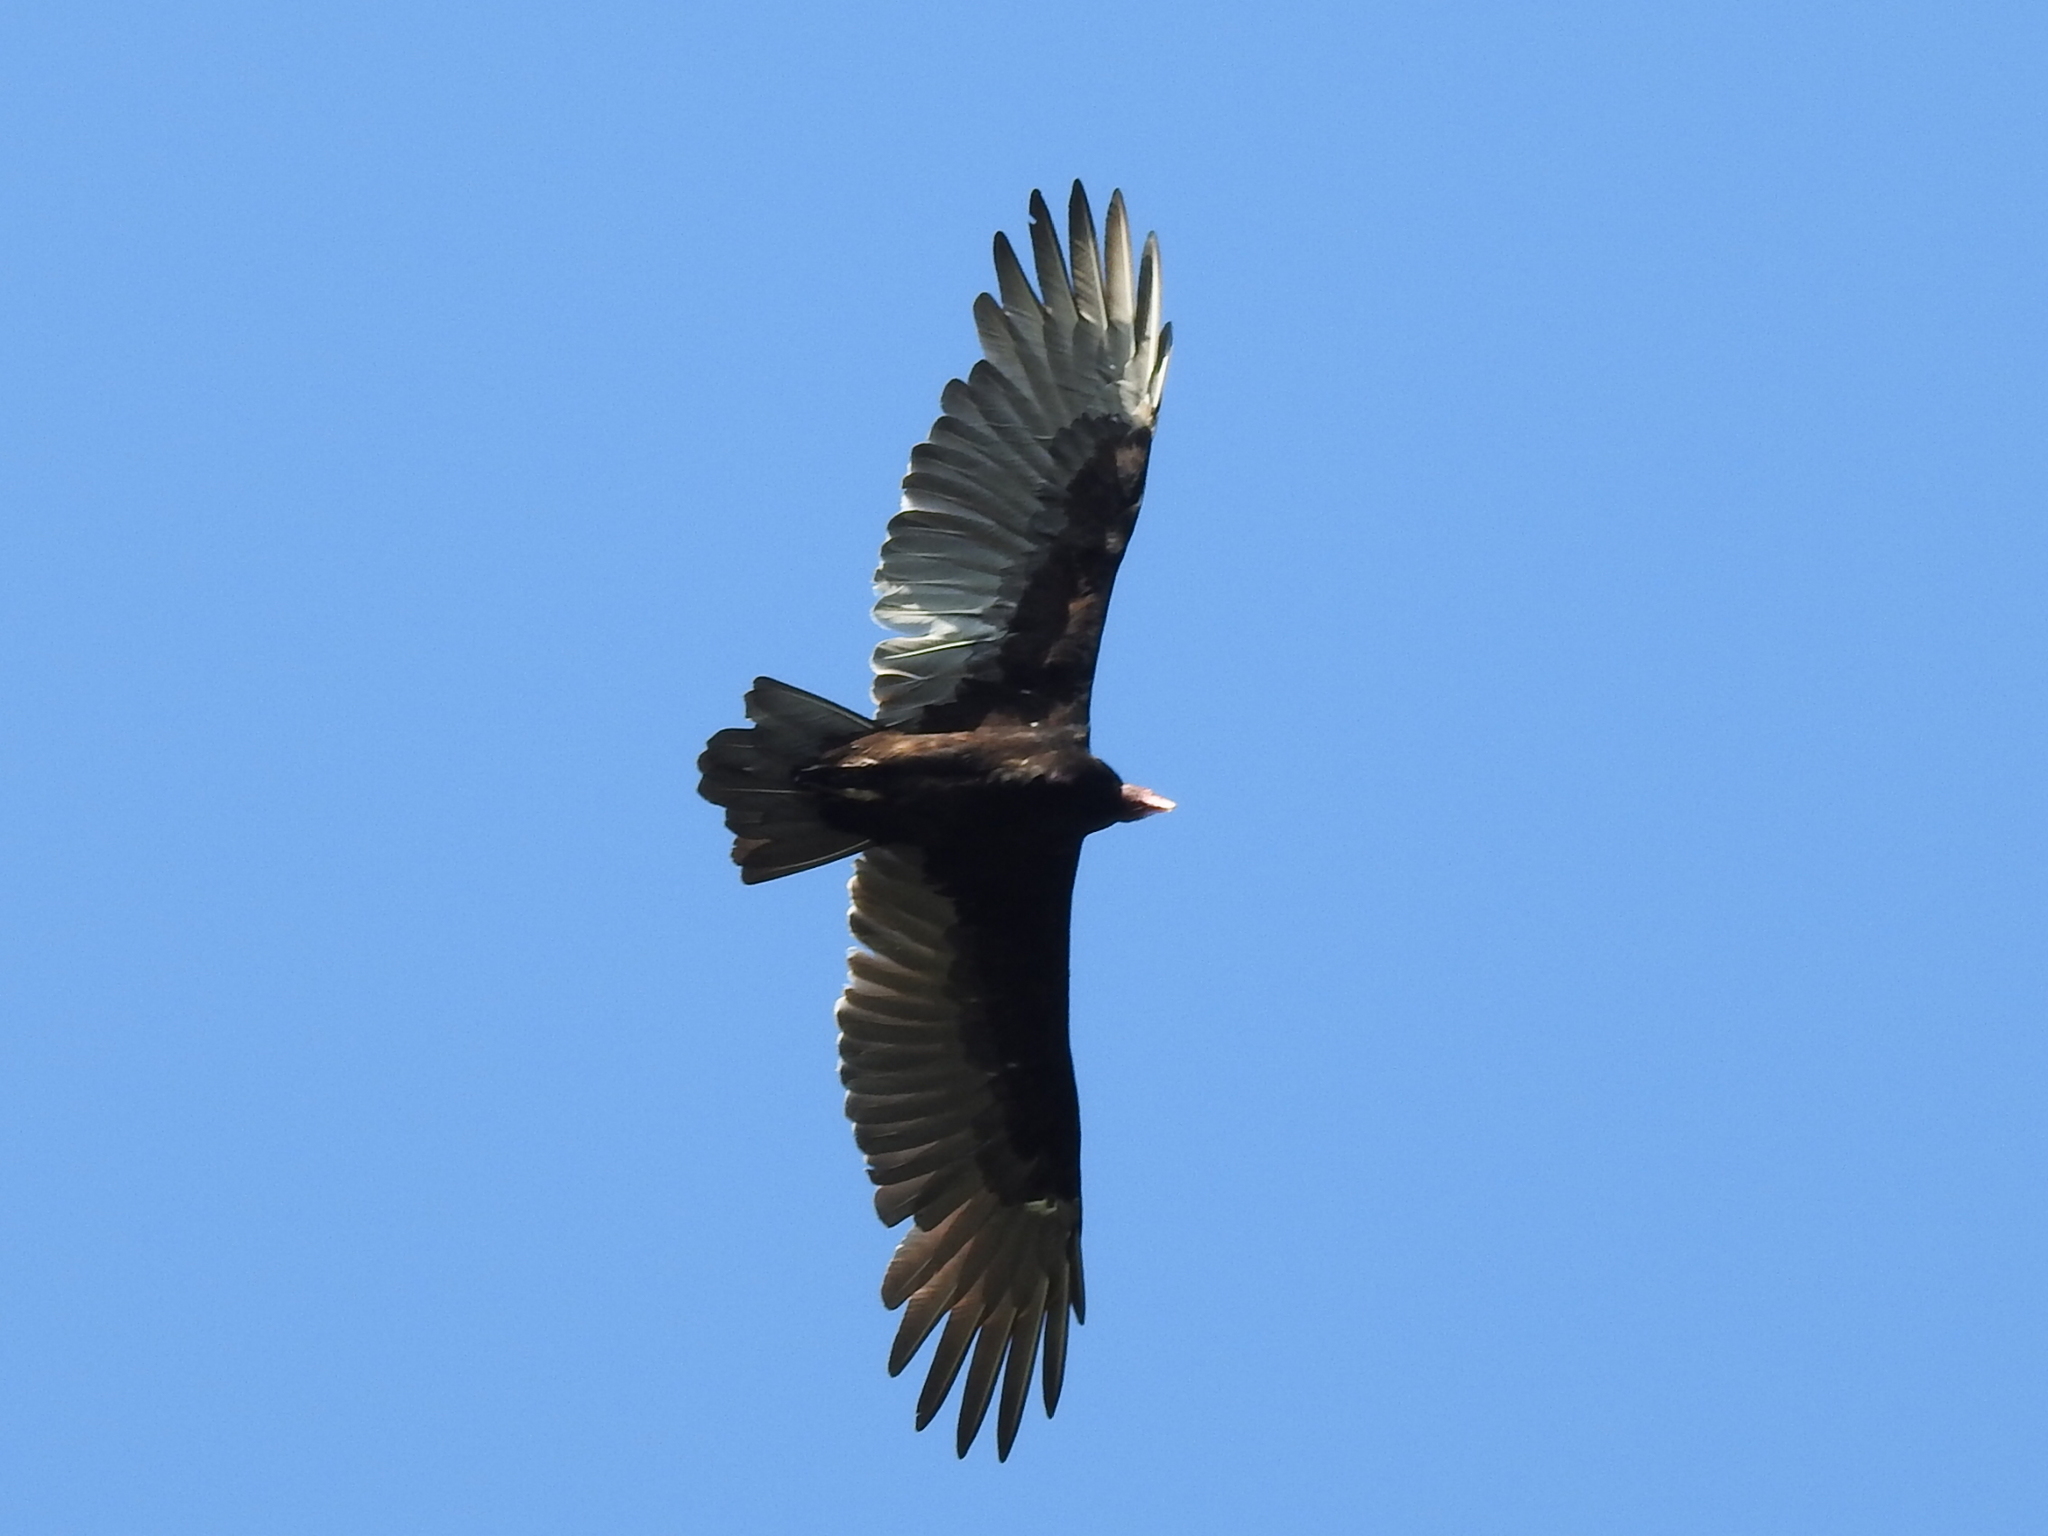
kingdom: Animalia
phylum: Chordata
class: Aves
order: Accipitriformes
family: Cathartidae
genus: Cathartes
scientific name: Cathartes aura
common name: Turkey vulture
